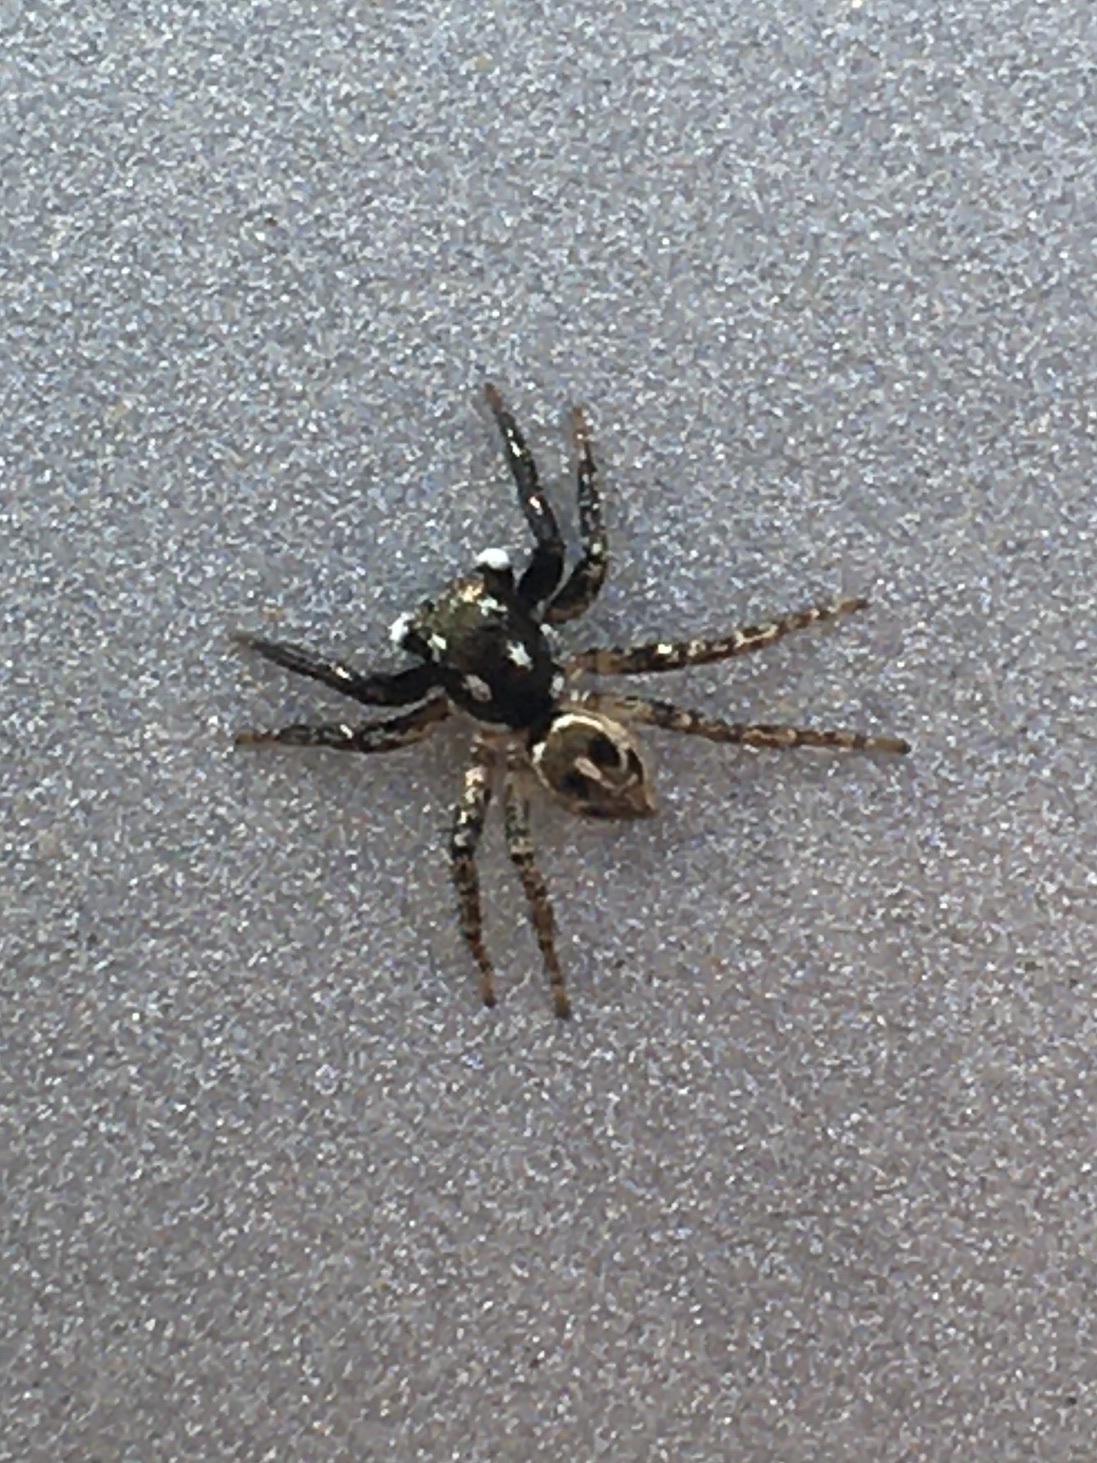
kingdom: Animalia
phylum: Arthropoda
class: Arachnida
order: Araneae
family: Salticidae
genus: Anasaitis
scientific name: Anasaitis canosa
